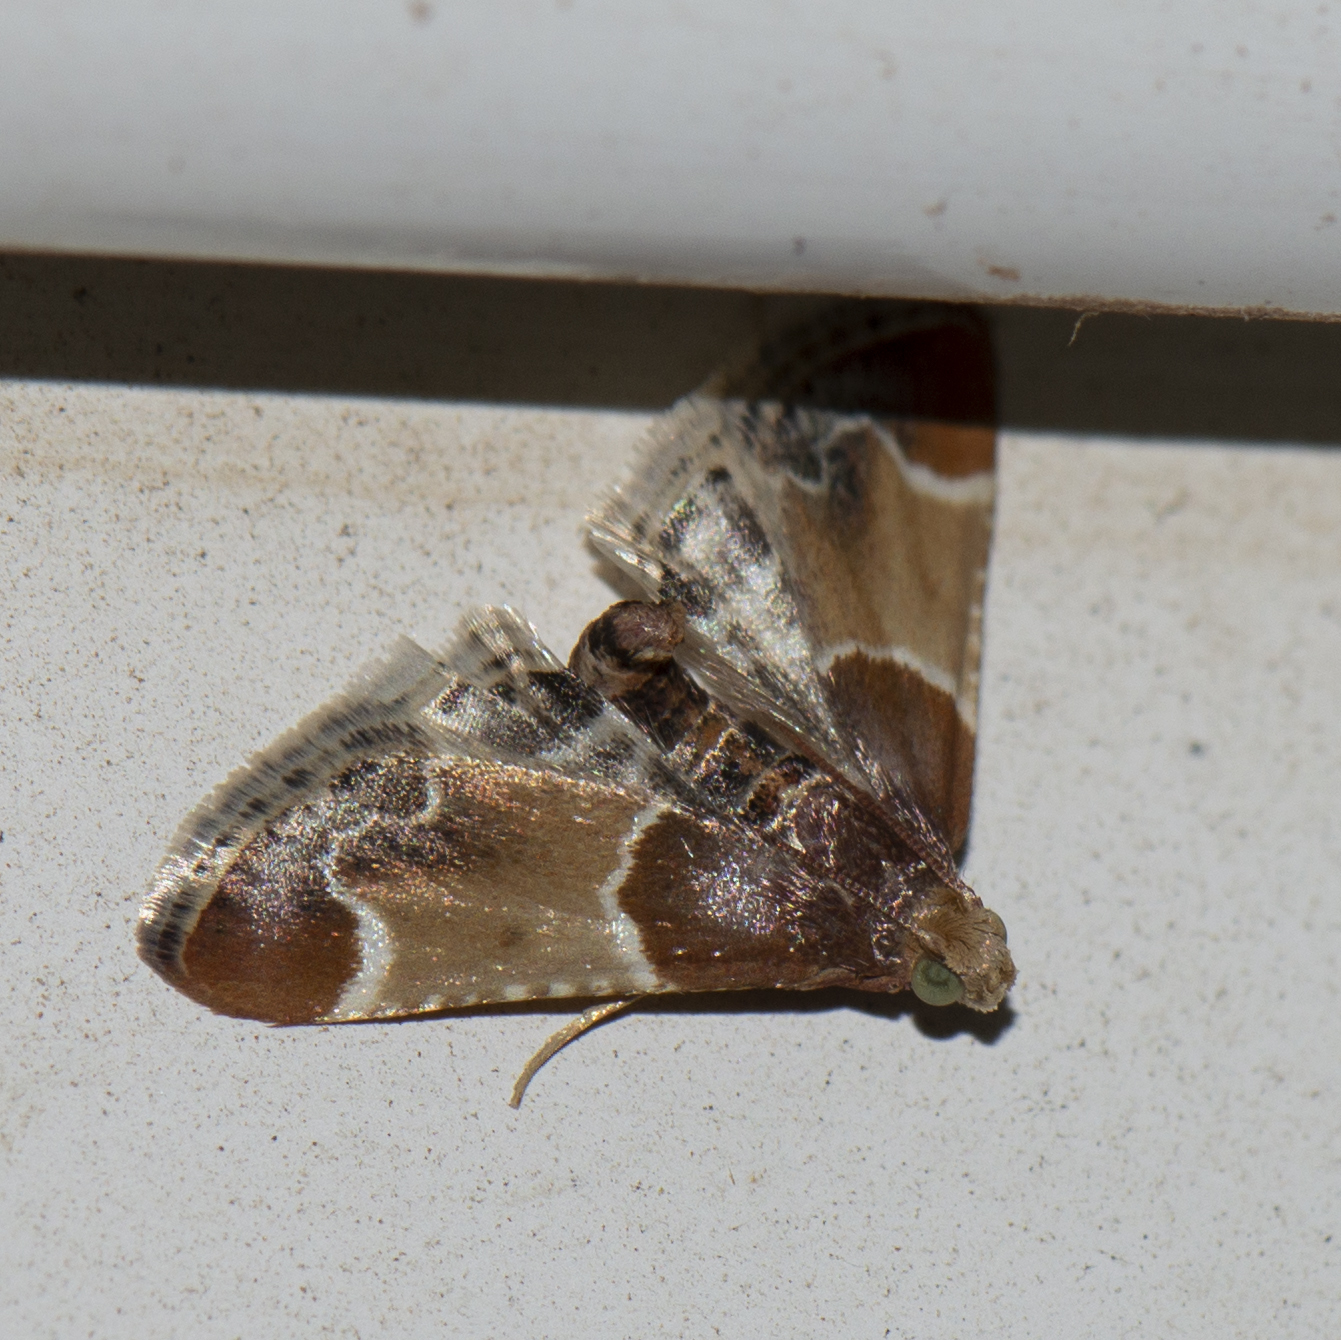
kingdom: Animalia
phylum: Arthropoda
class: Insecta
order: Lepidoptera
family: Pyralidae
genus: Pyralis
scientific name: Pyralis farinalis
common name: Meal moth
